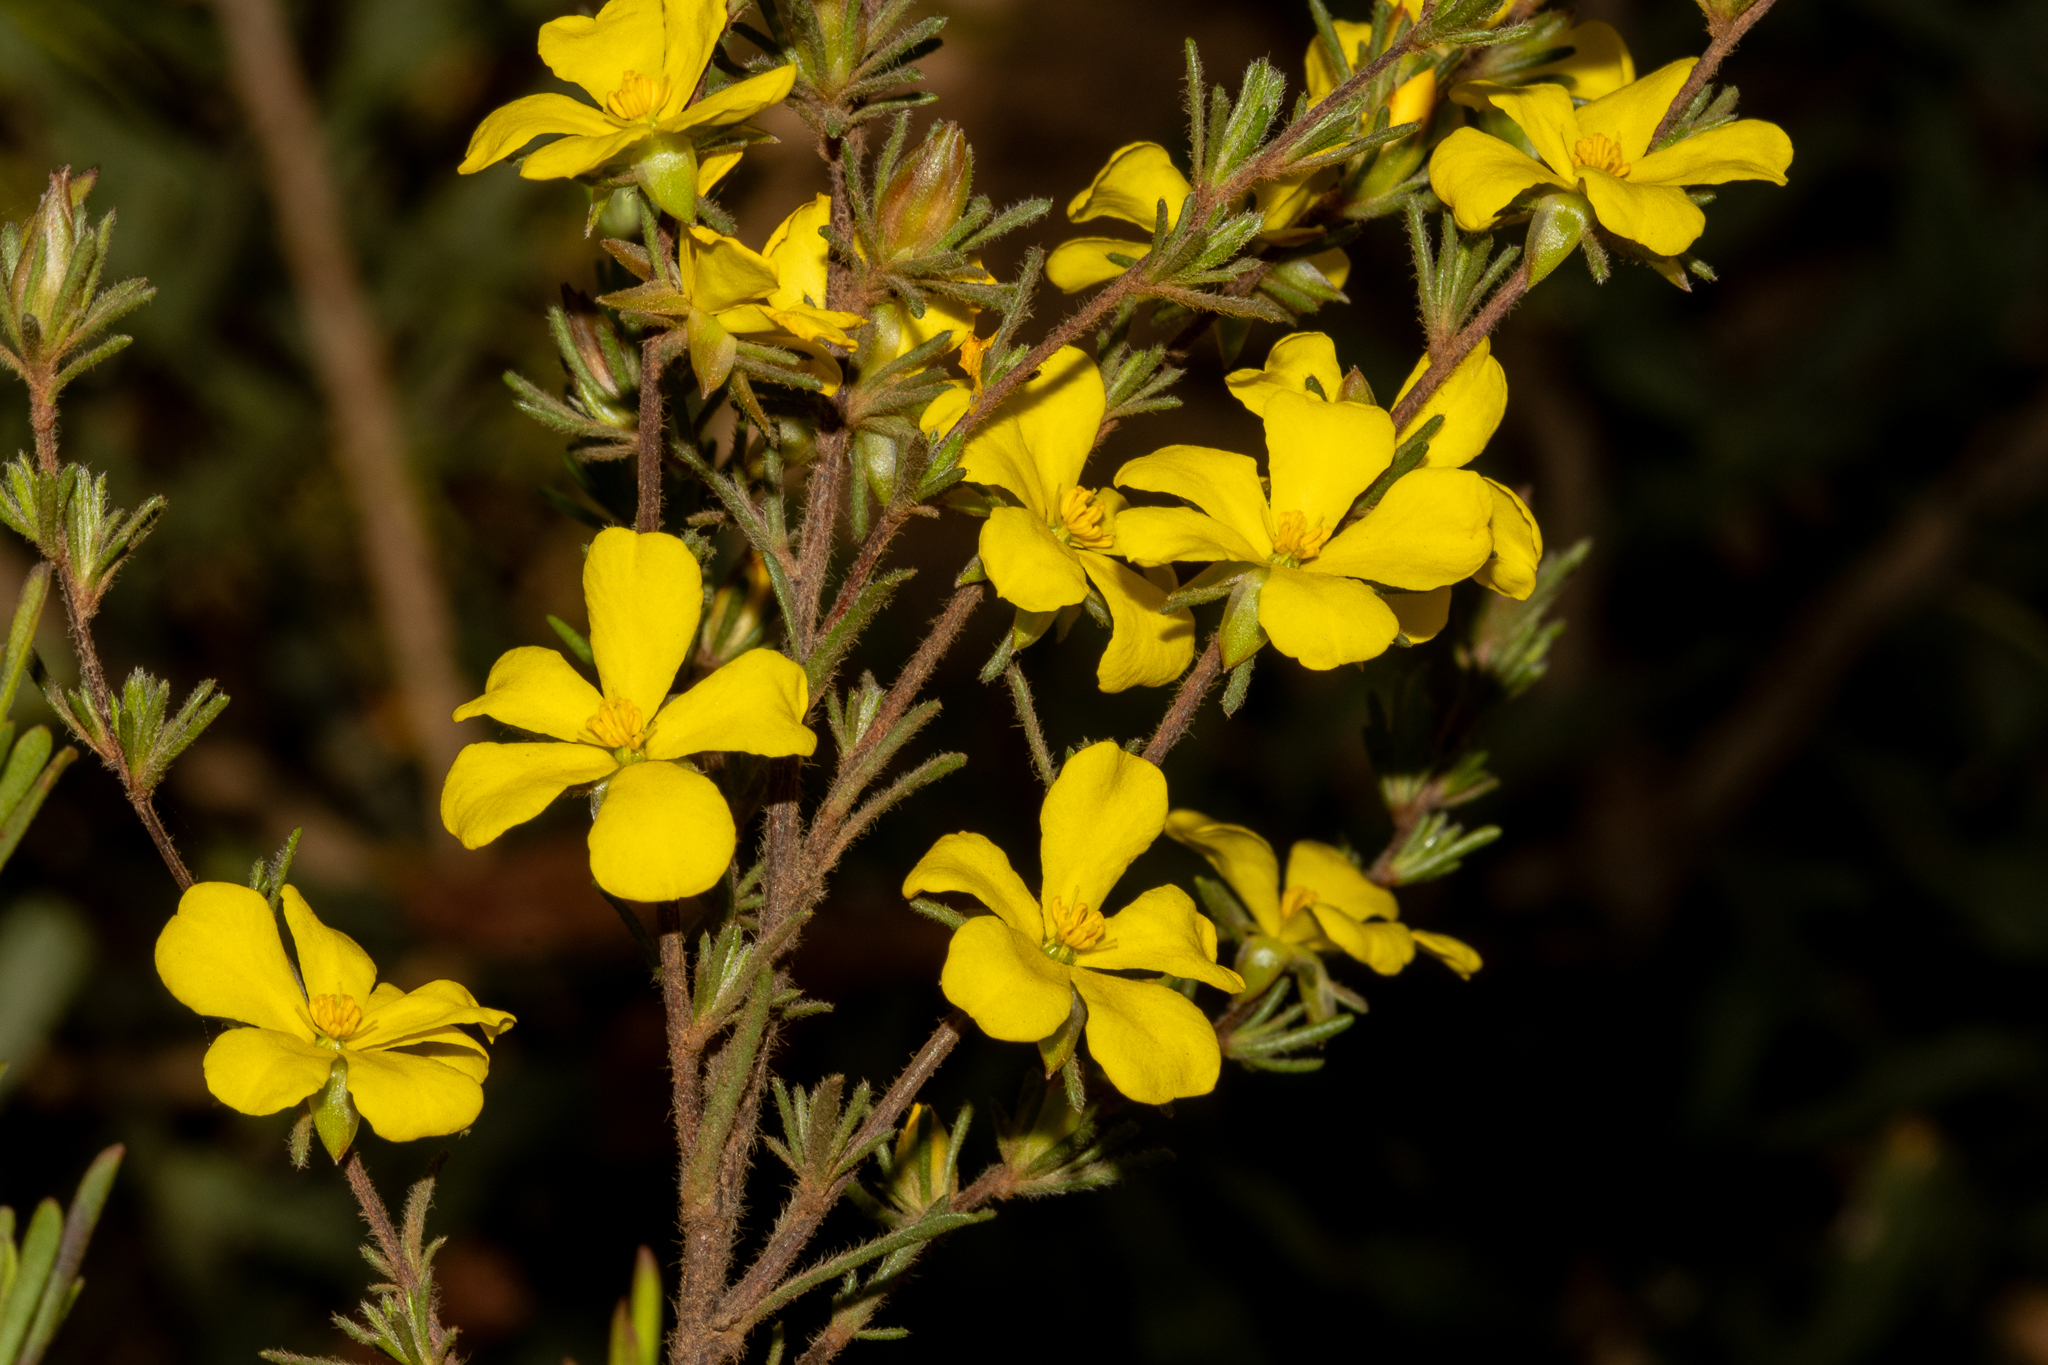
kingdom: Plantae
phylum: Tracheophyta
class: Magnoliopsida
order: Dilleniales
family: Dilleniaceae
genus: Hibbertia
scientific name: Hibbertia fasciculata
